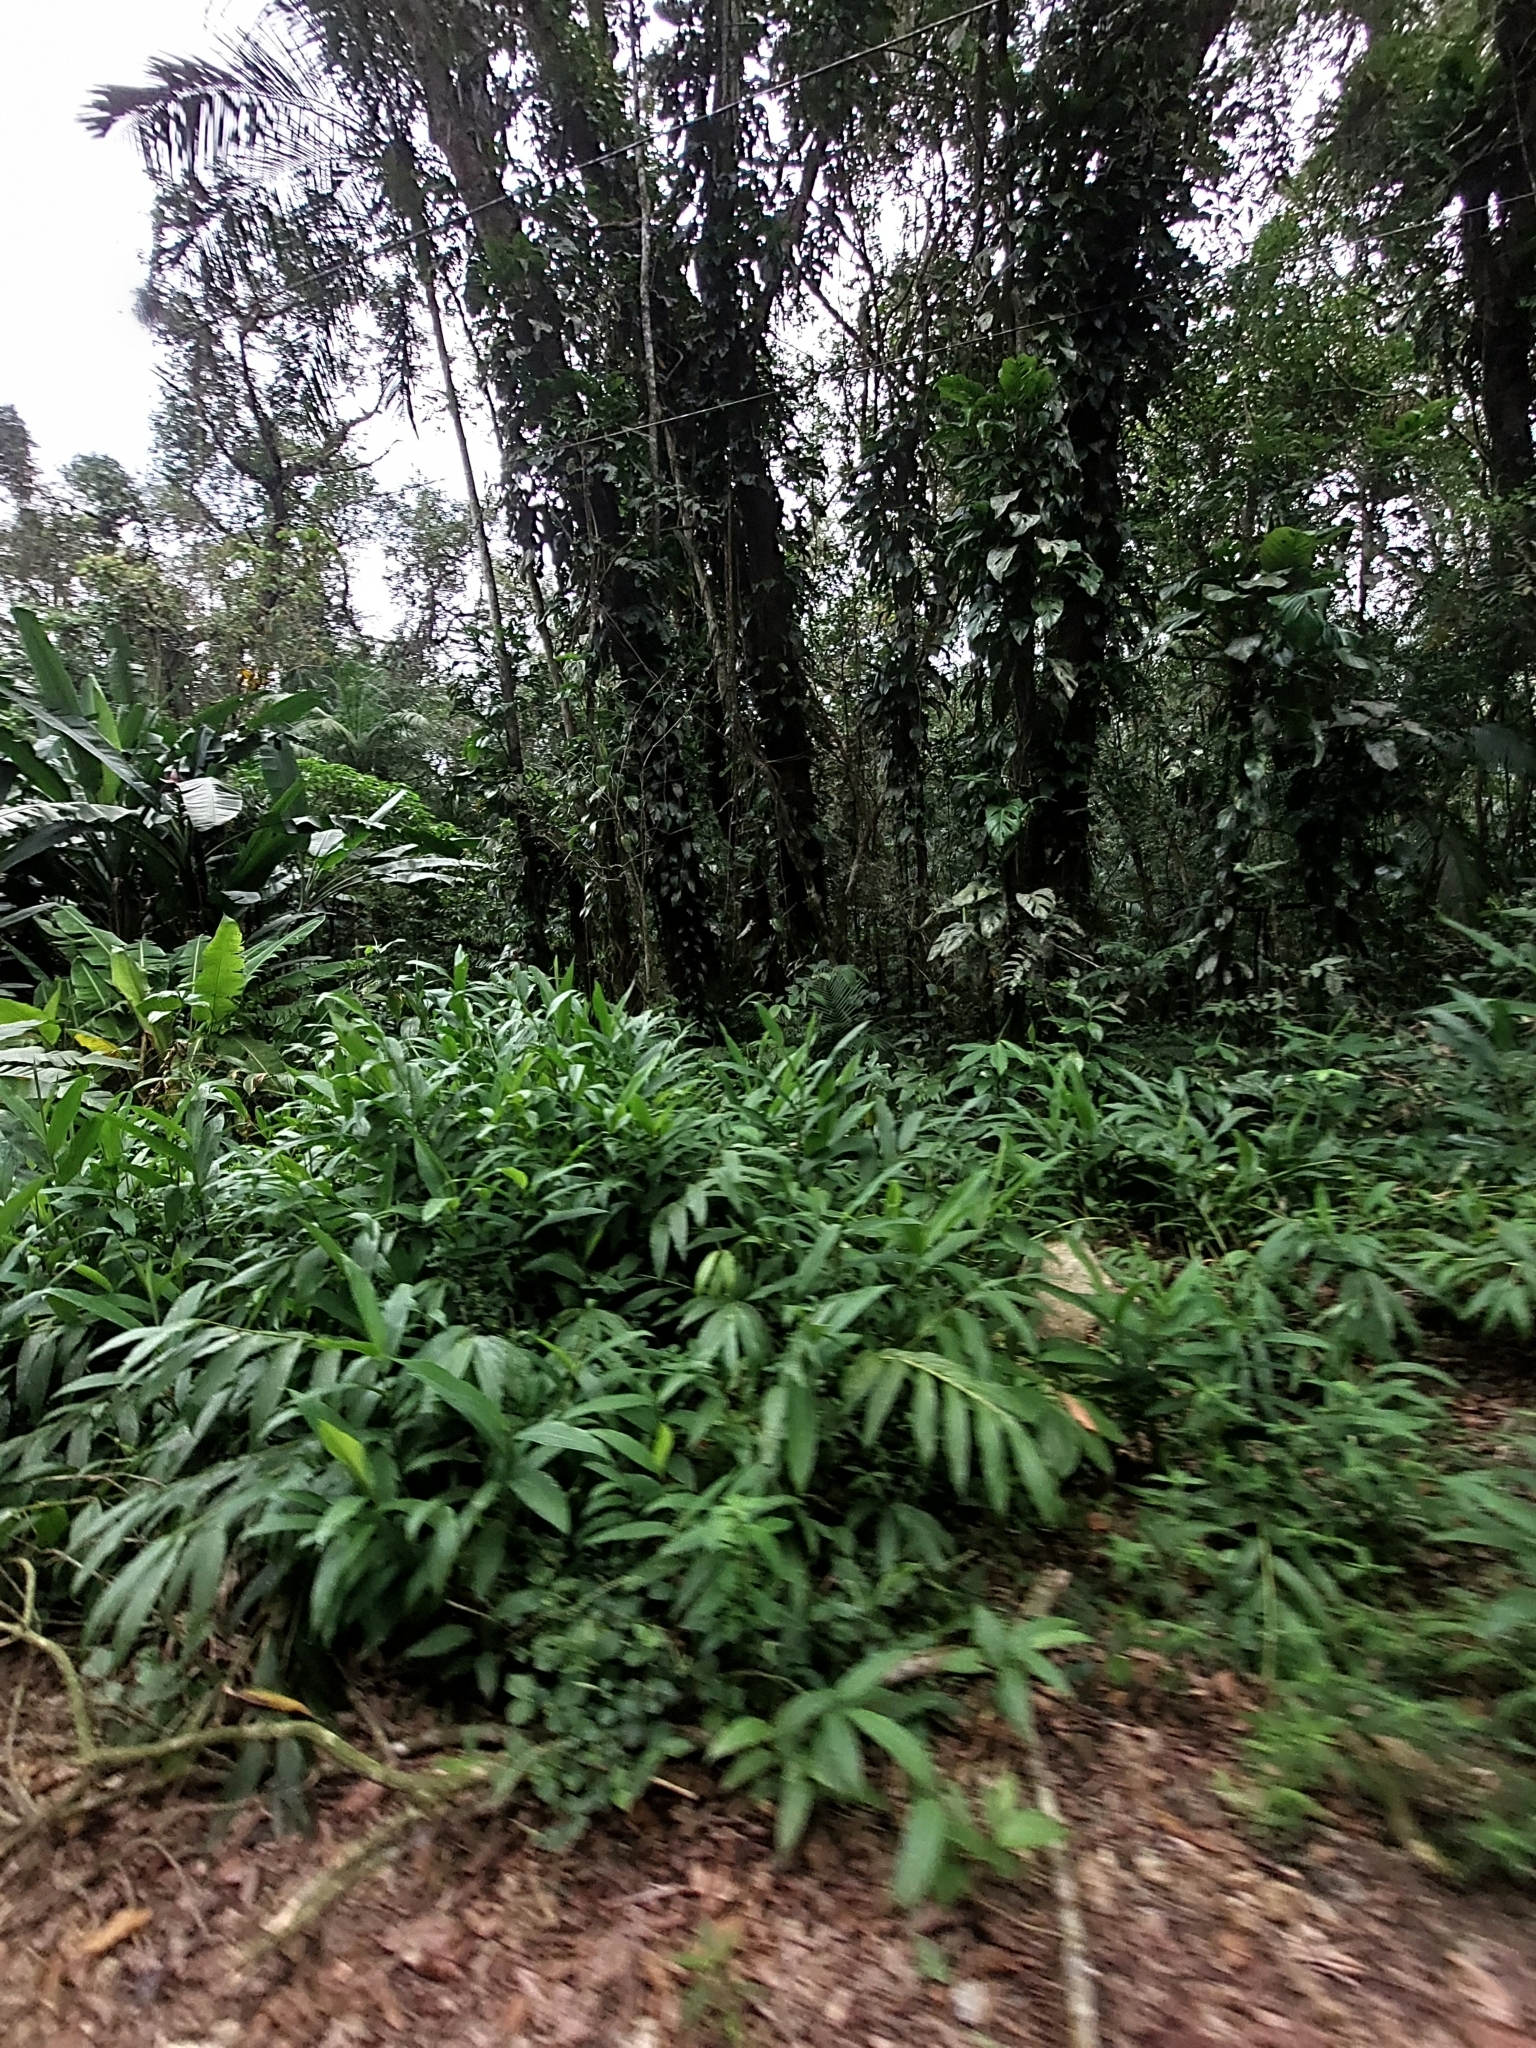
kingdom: Plantae
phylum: Tracheophyta
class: Liliopsida
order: Zingiberales
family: Zingiberaceae
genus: Hedychium
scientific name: Hedychium coronarium
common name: White garland-lily
